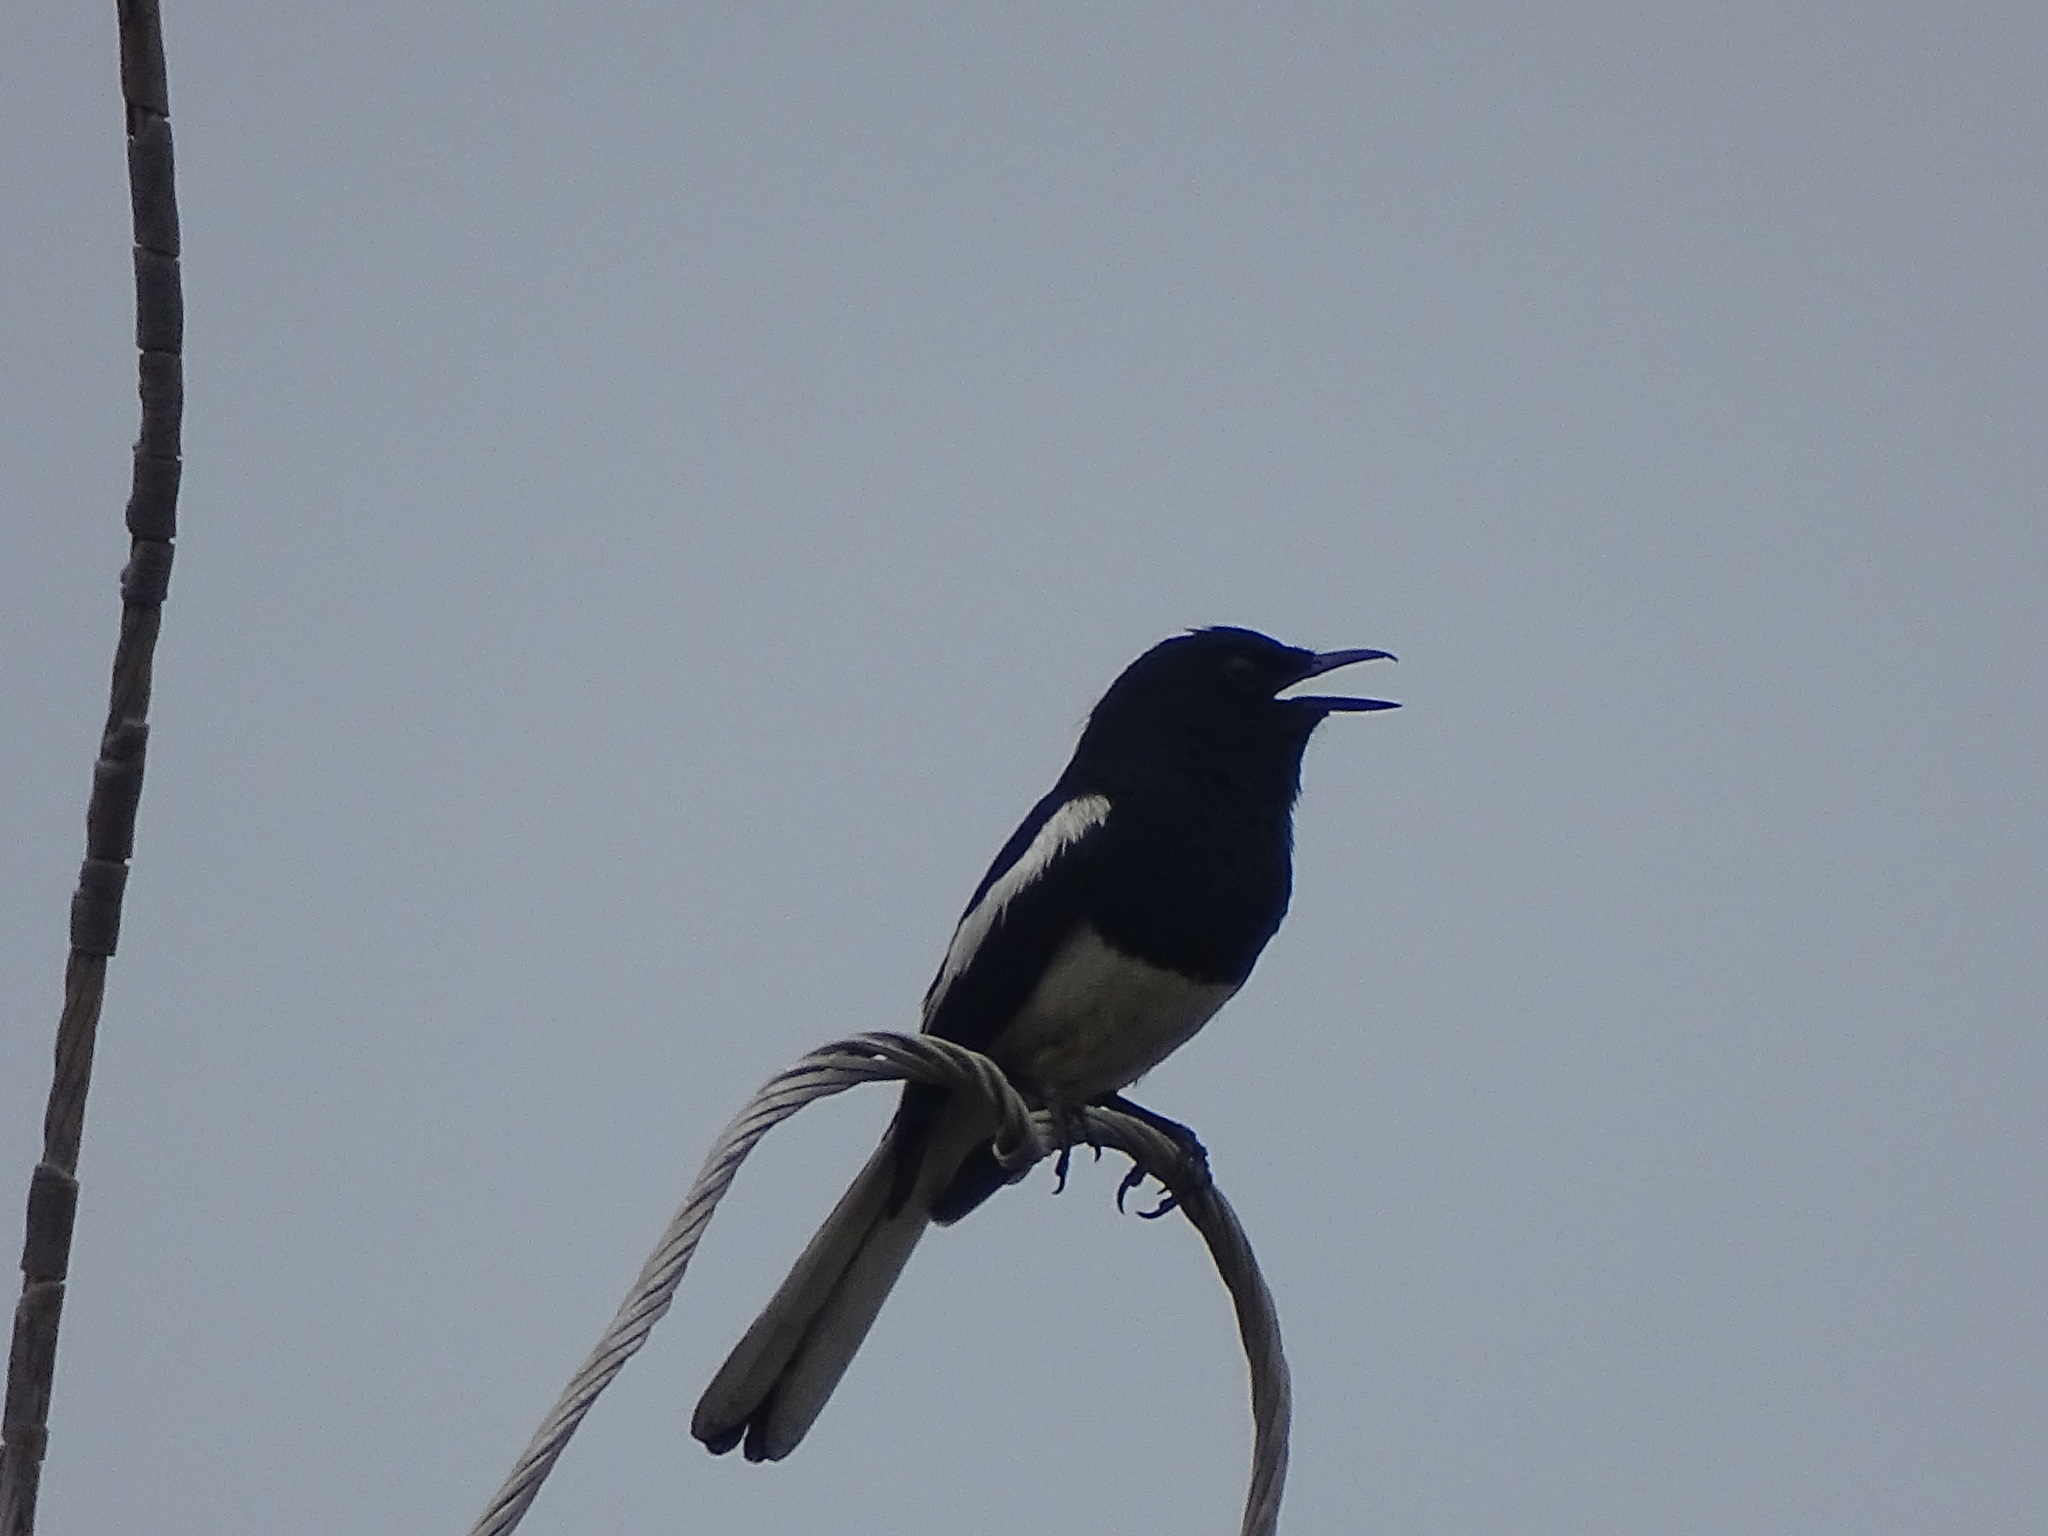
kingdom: Animalia
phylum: Chordata
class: Aves
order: Passeriformes
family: Muscicapidae
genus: Copsychus
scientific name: Copsychus saularis
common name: Oriental magpie-robin
